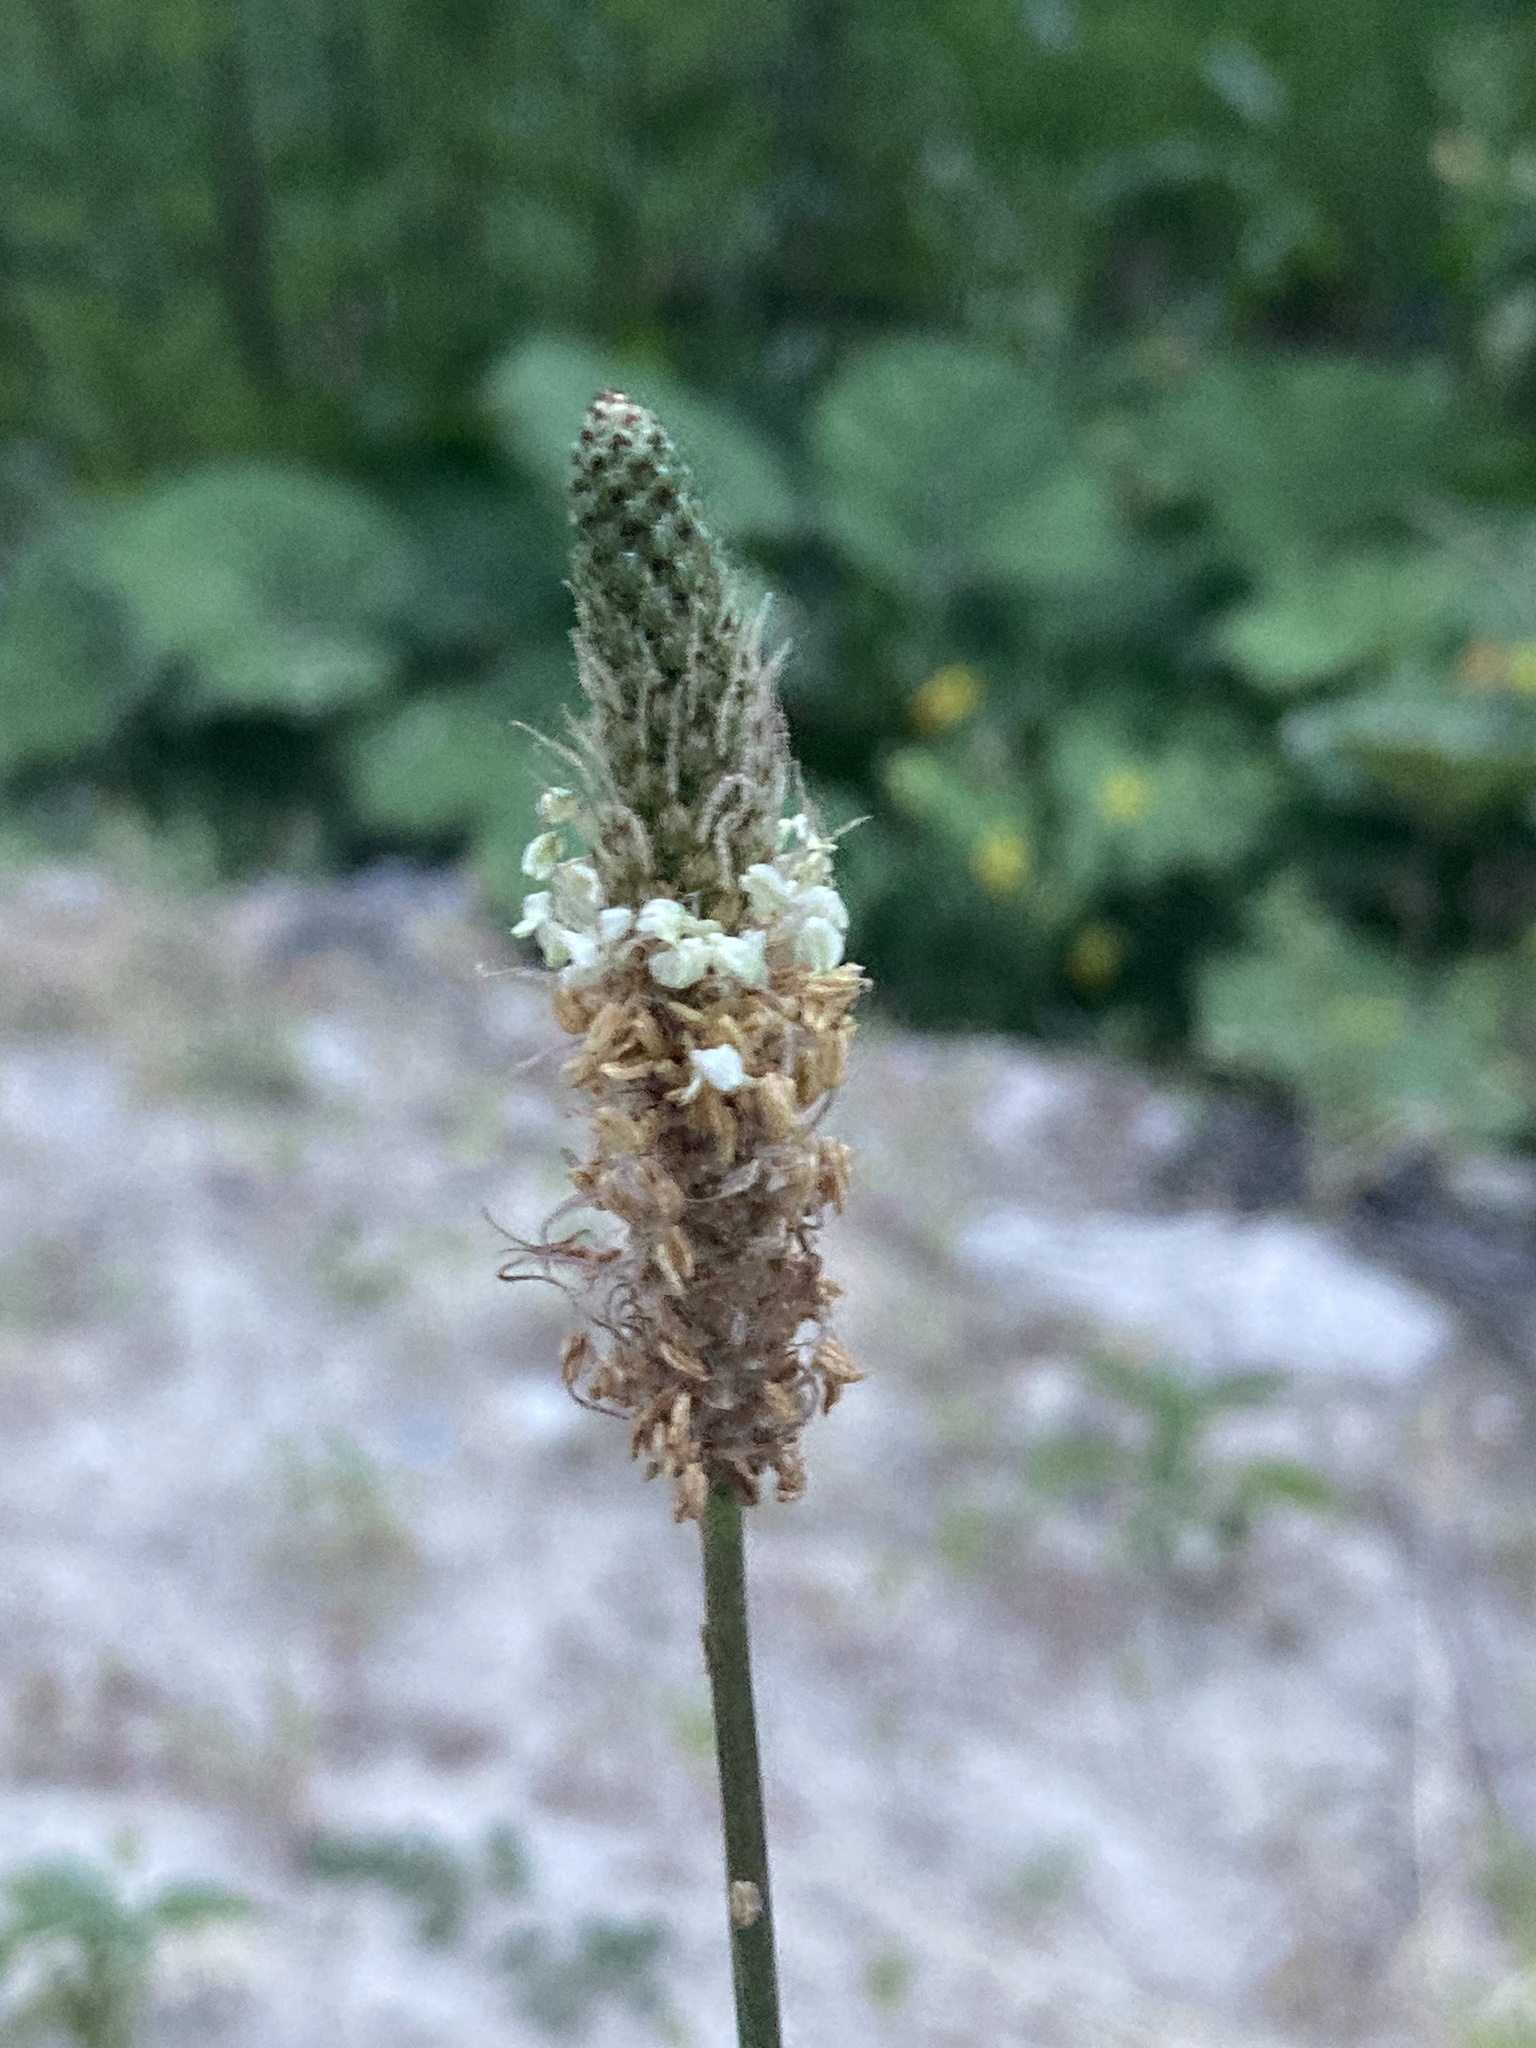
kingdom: Plantae
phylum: Tracheophyta
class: Magnoliopsida
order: Lamiales
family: Plantaginaceae
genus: Plantago
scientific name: Plantago lanceolata
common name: Ribwort plantain
